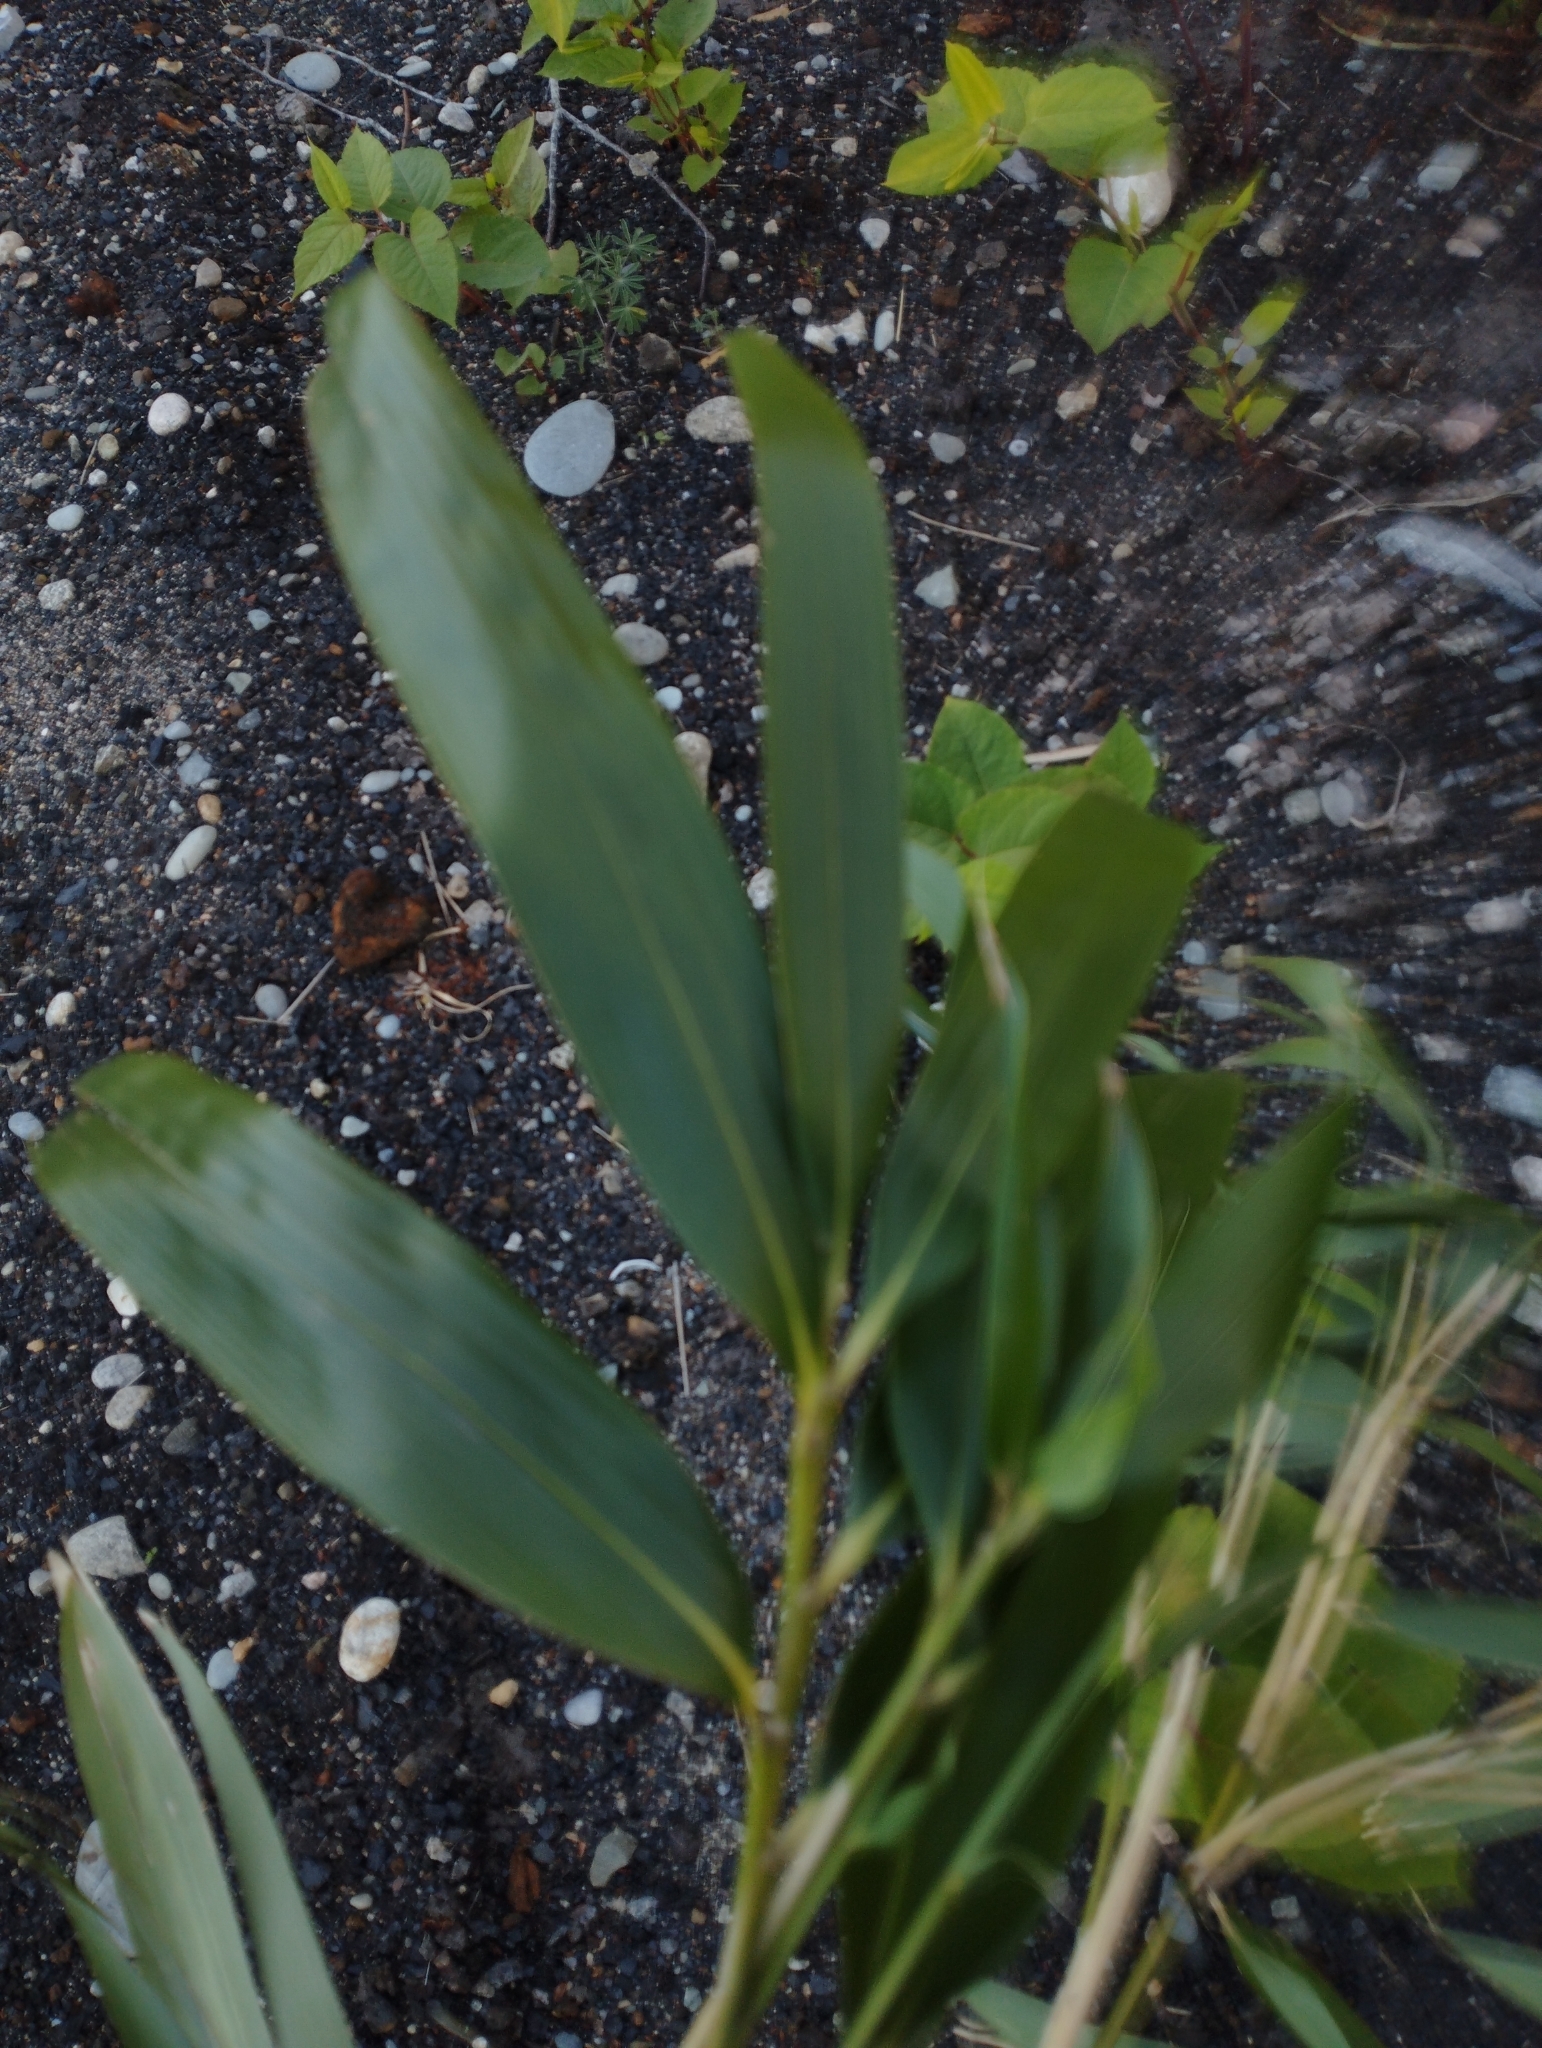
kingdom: Plantae
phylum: Tracheophyta
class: Liliopsida
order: Poales
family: Poaceae
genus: Pseudosasa
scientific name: Pseudosasa japonica
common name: Arrow bamboo
